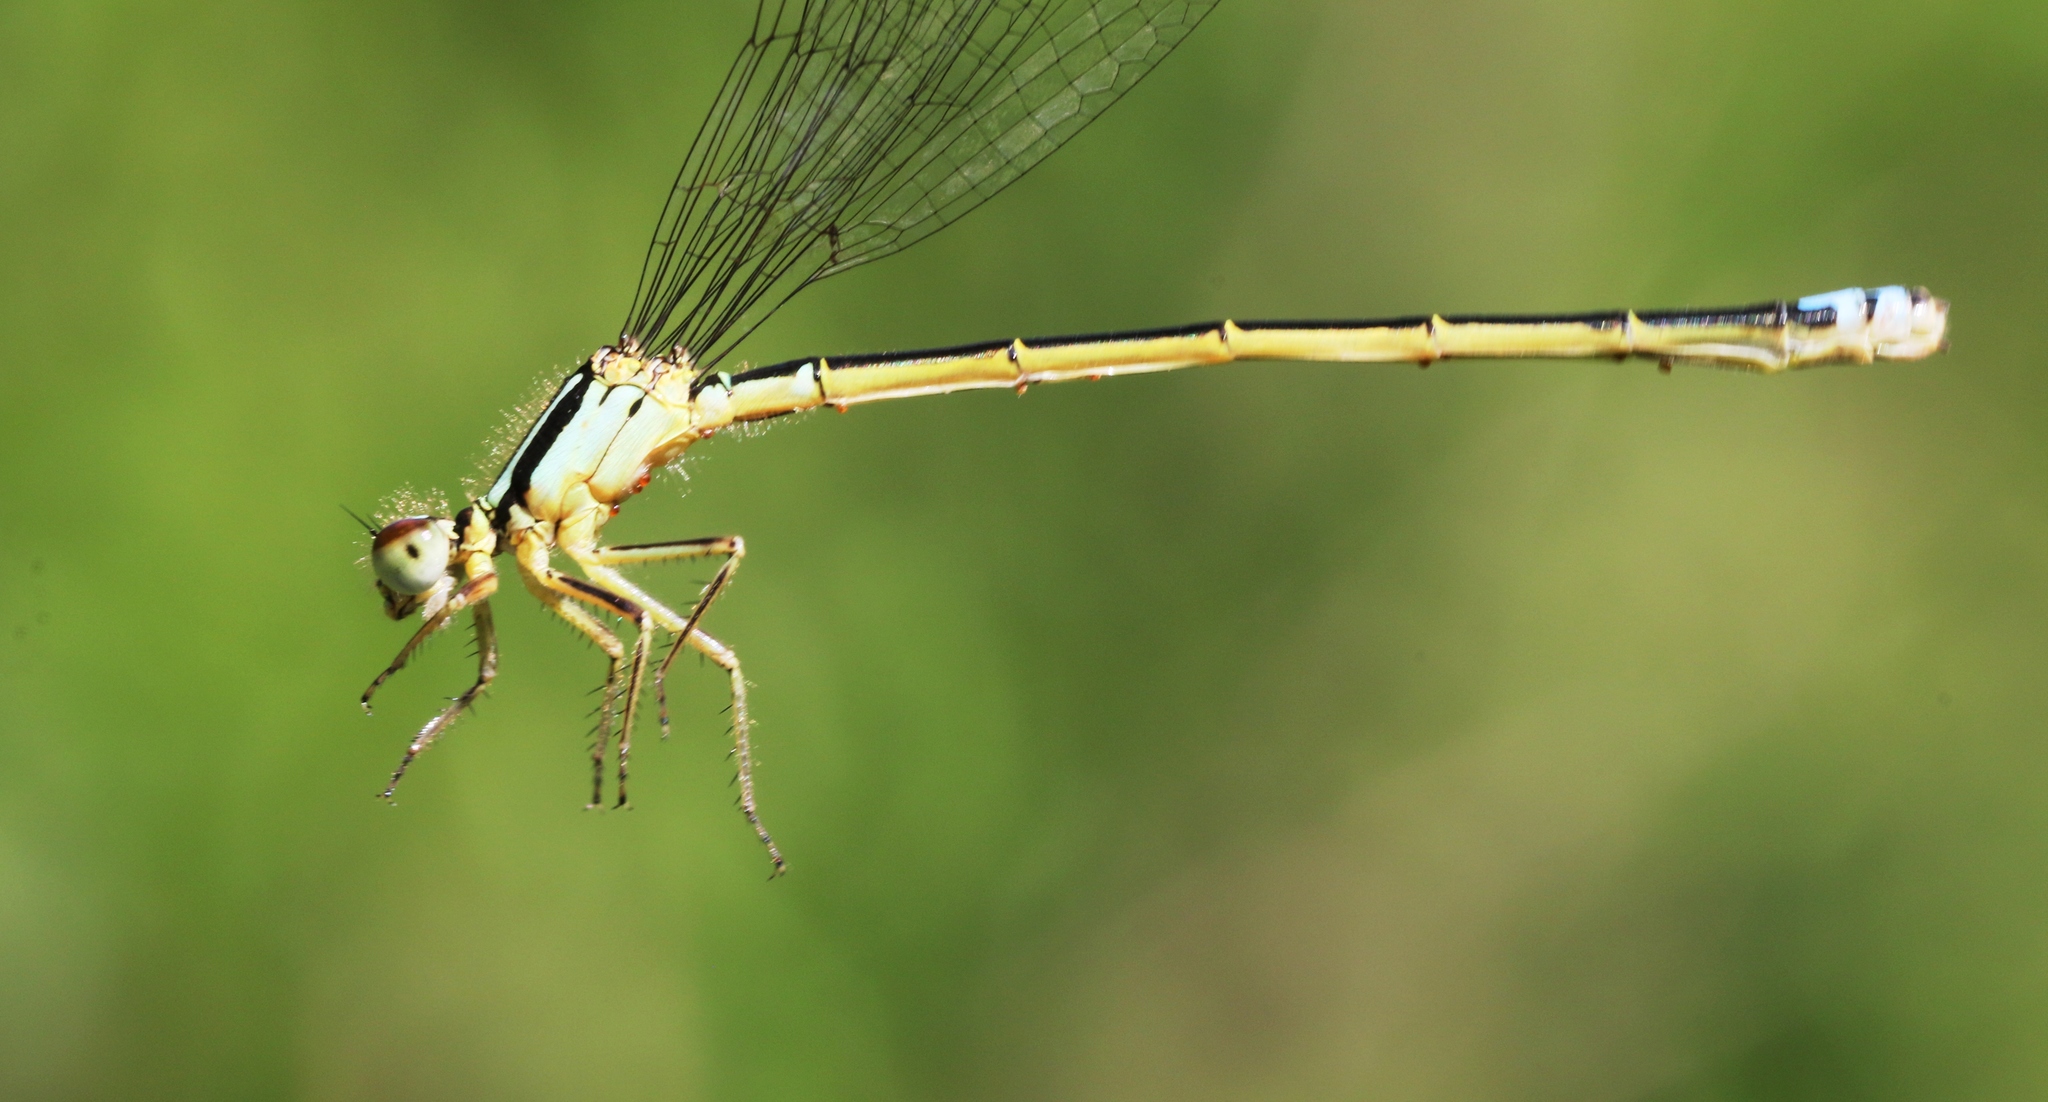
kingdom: Animalia
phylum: Arthropoda
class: Insecta
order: Odonata
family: Coenagrionidae
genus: Ischnura
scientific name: Ischnura verticalis
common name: Eastern forktail
